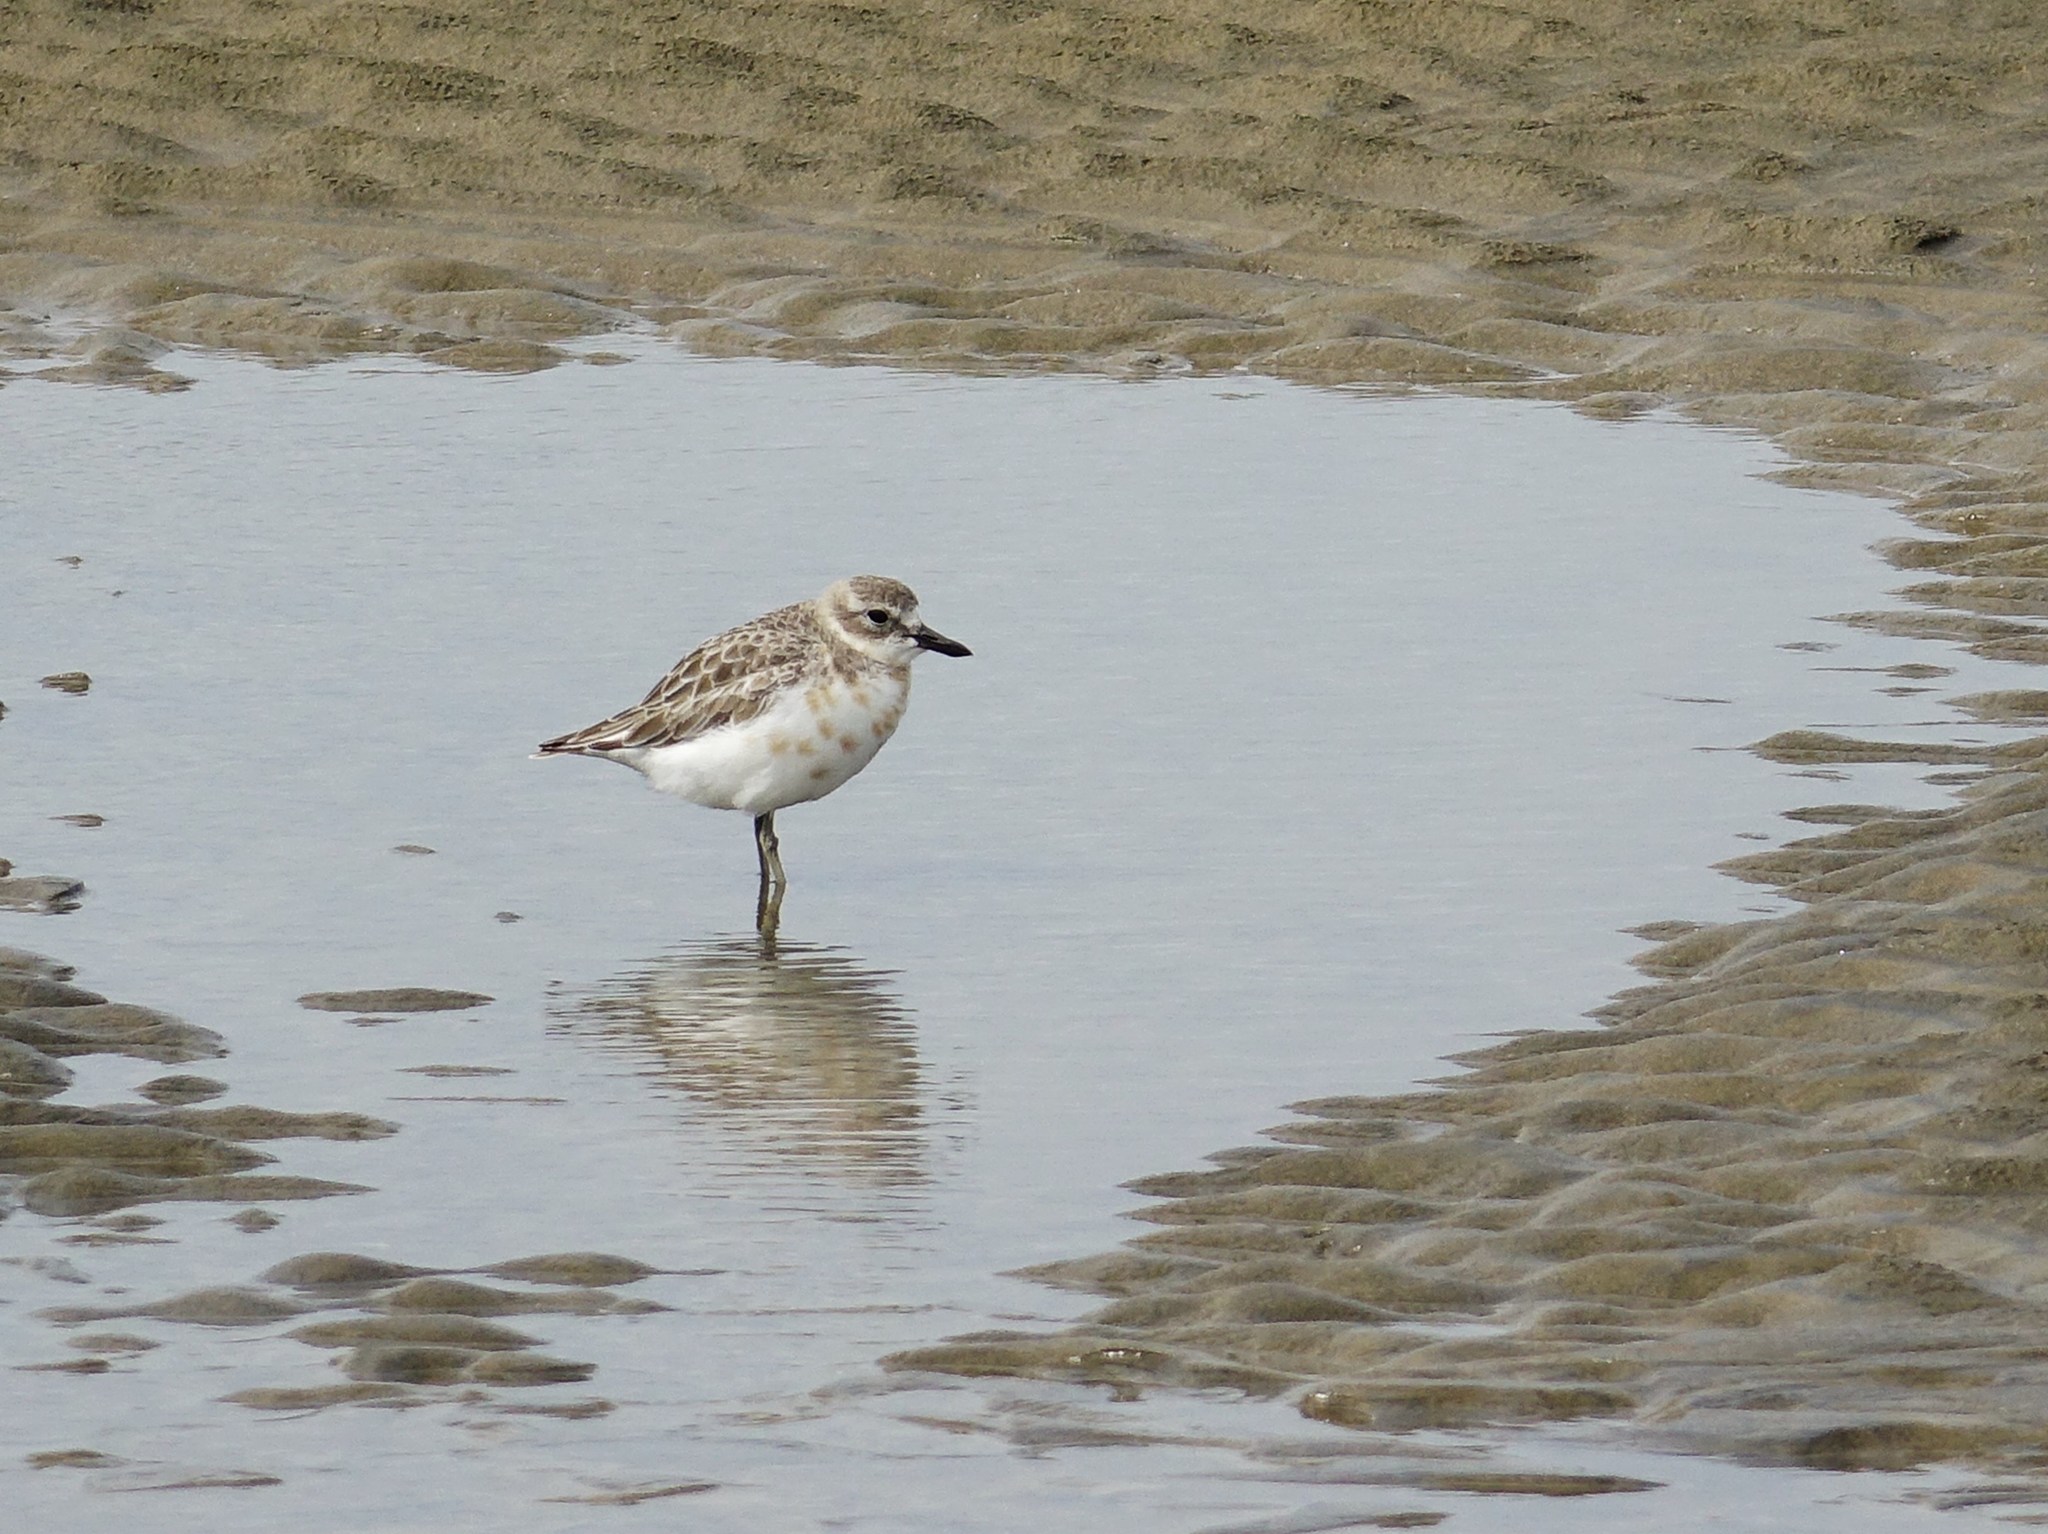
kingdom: Animalia
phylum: Chordata
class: Aves
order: Charadriiformes
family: Charadriidae
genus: Anarhynchus
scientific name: Anarhynchus
